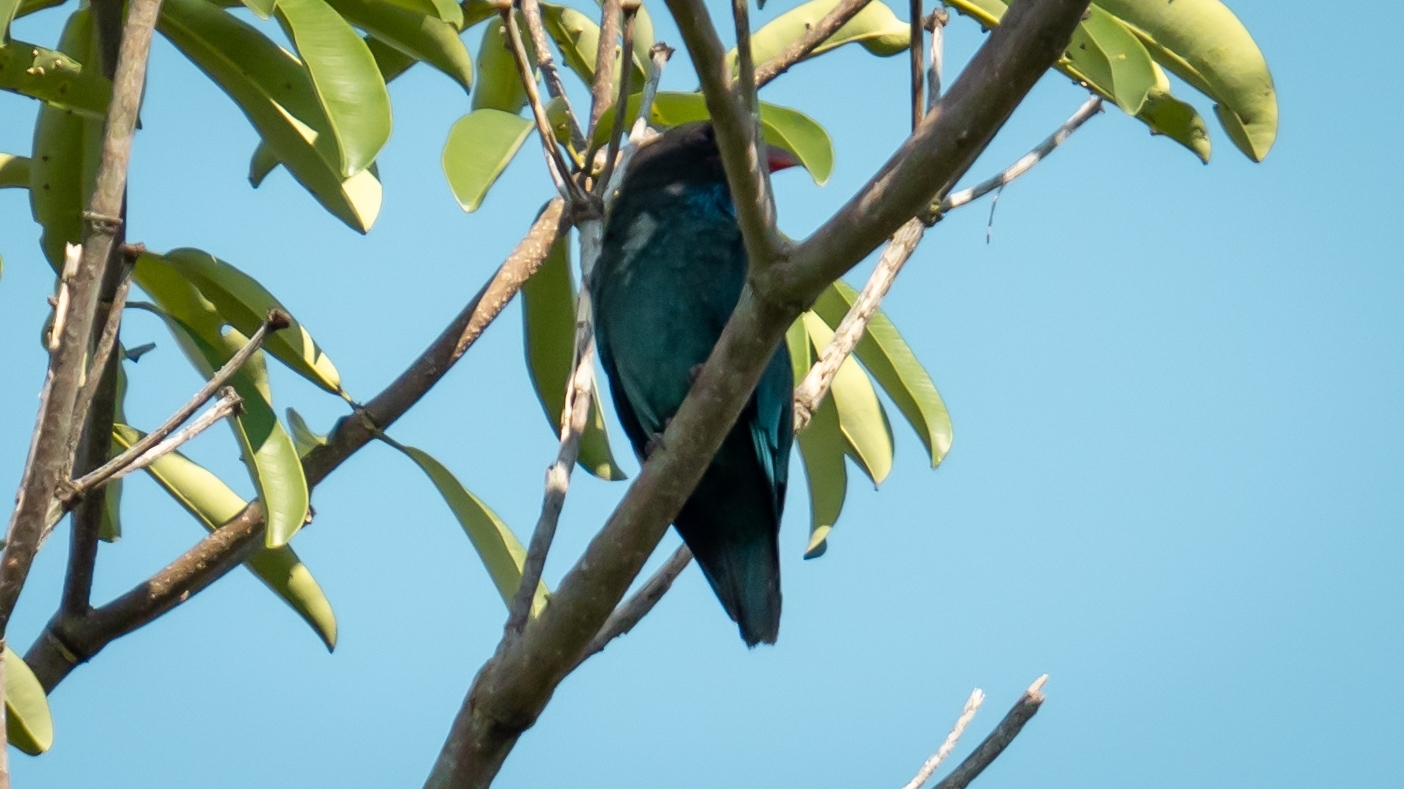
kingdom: Animalia
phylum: Chordata
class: Aves
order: Coraciiformes
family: Coraciidae
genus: Eurystomus
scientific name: Eurystomus orientalis
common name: Oriental dollarbird
